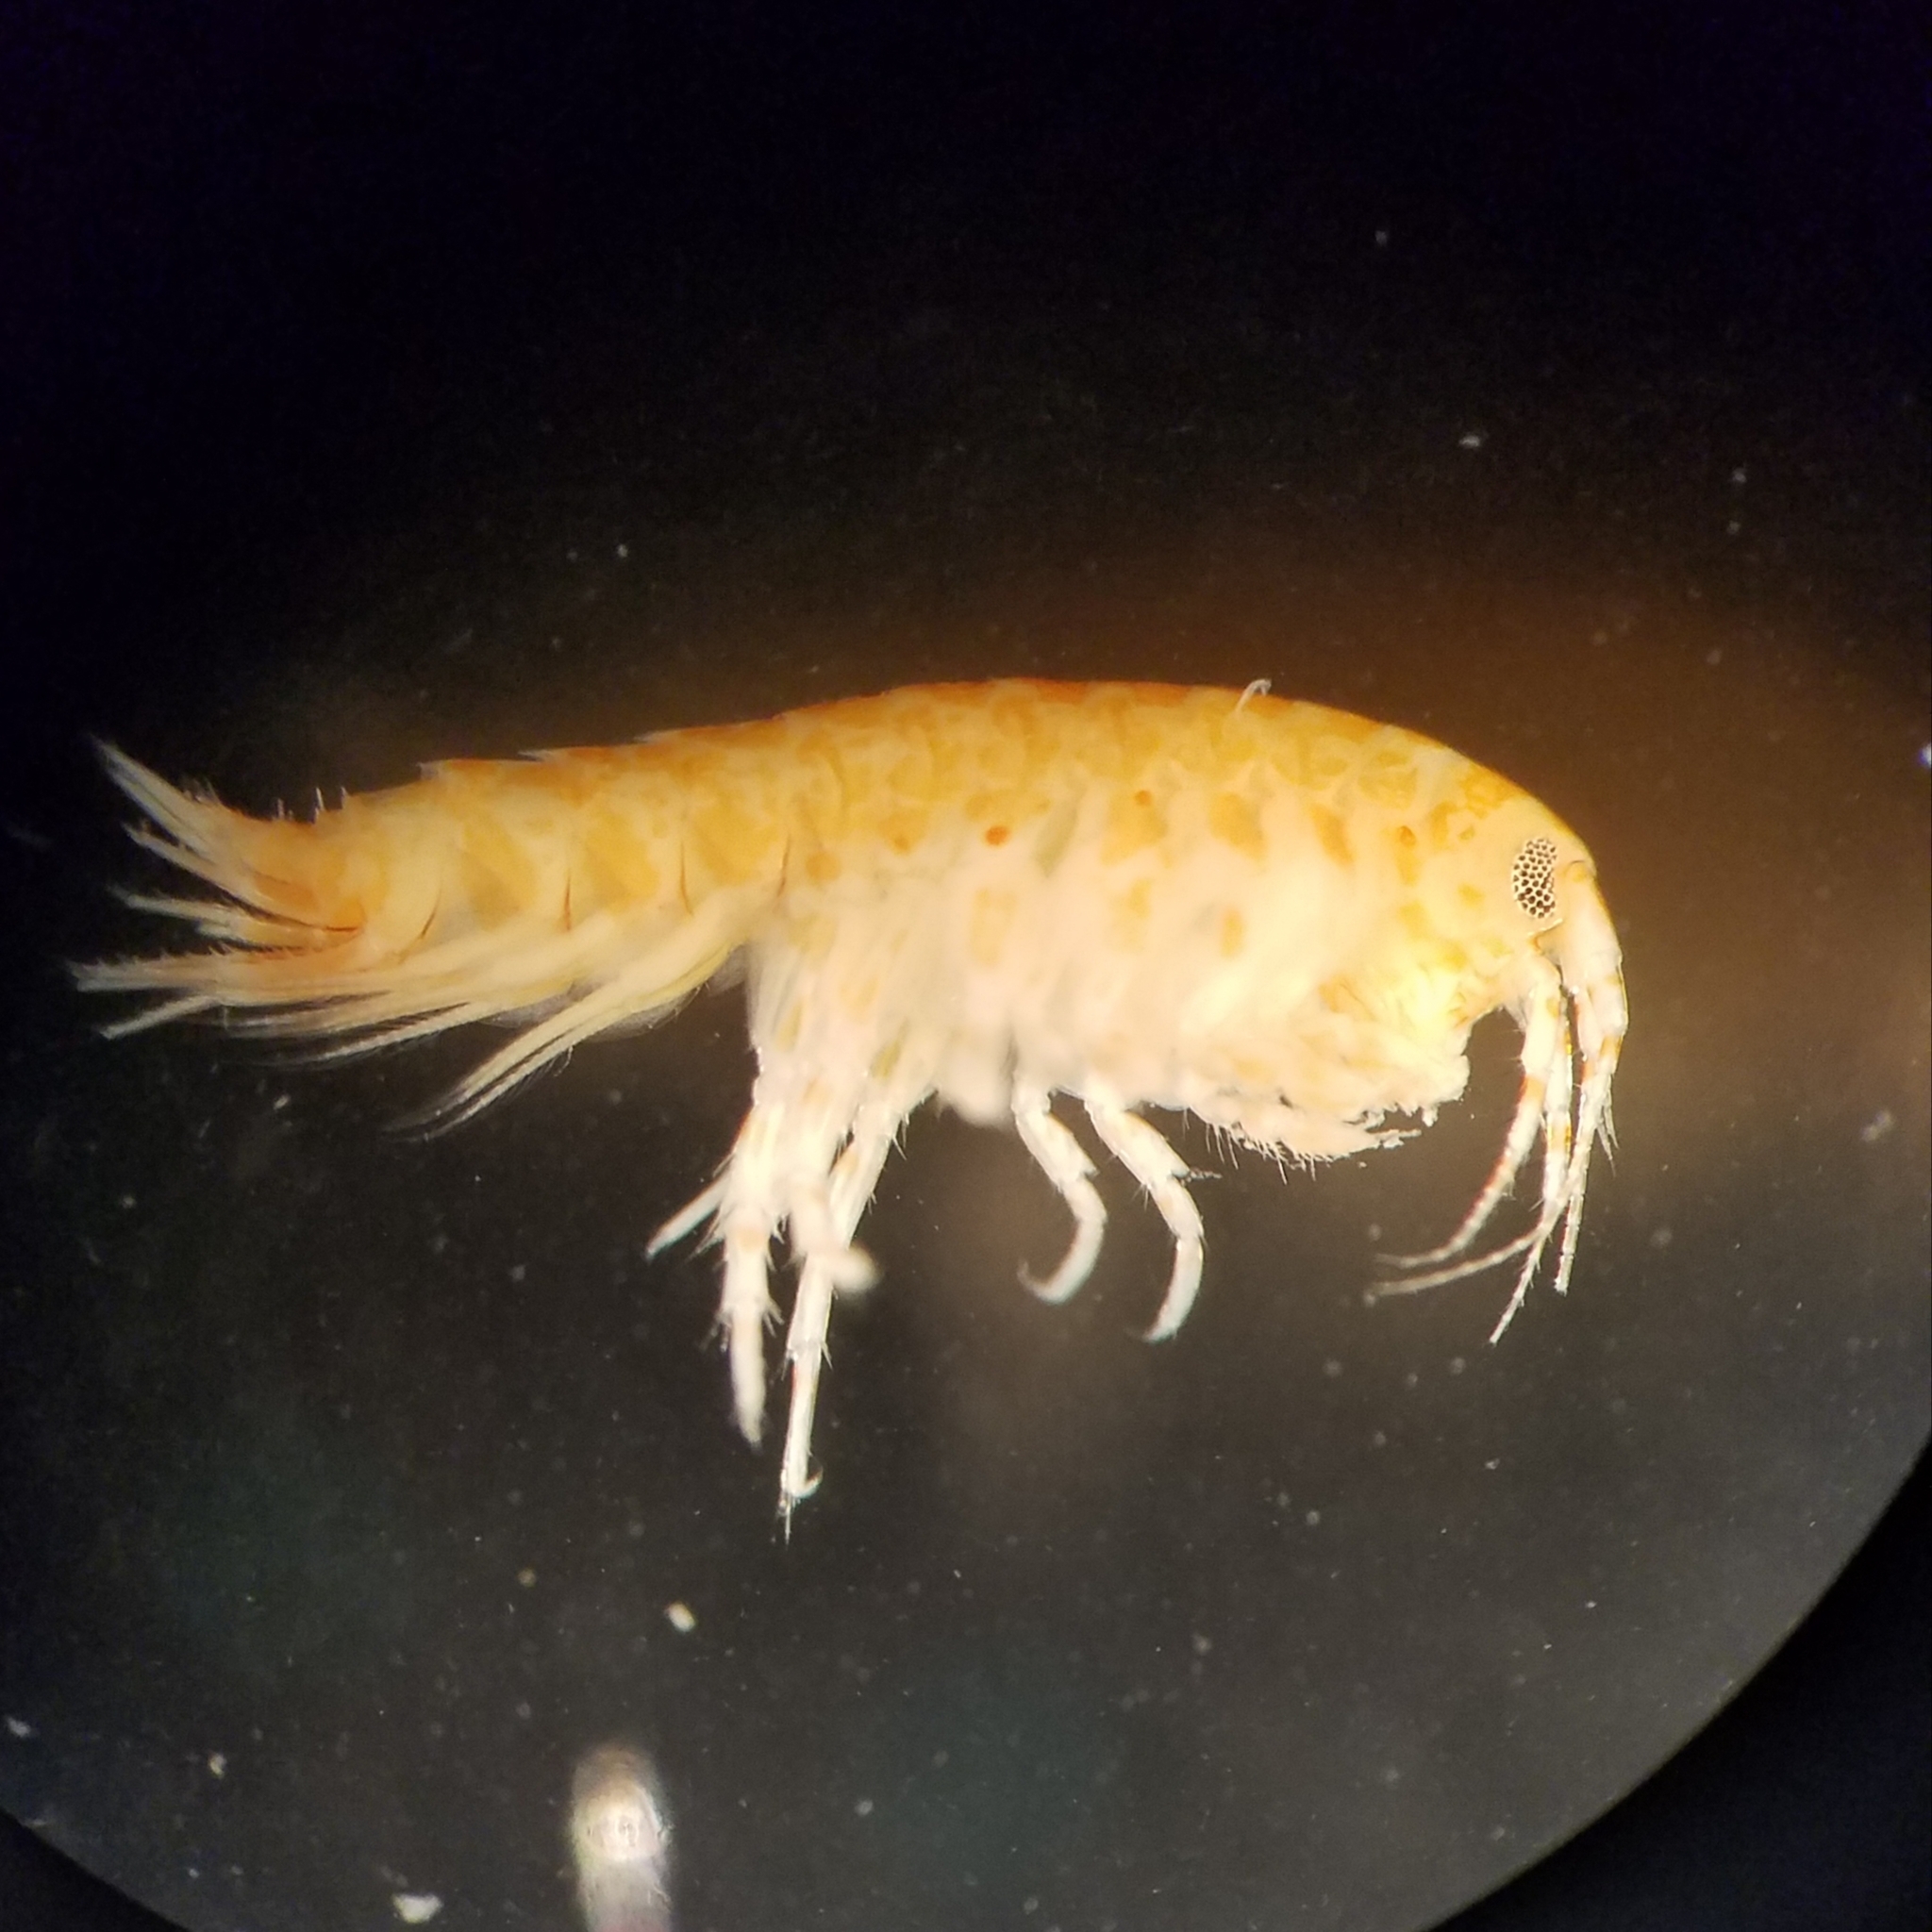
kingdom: Animalia
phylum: Arthropoda
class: Malacostraca
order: Amphipoda
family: Gammaridae
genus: Gammarus
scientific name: Gammarus mucronatus
